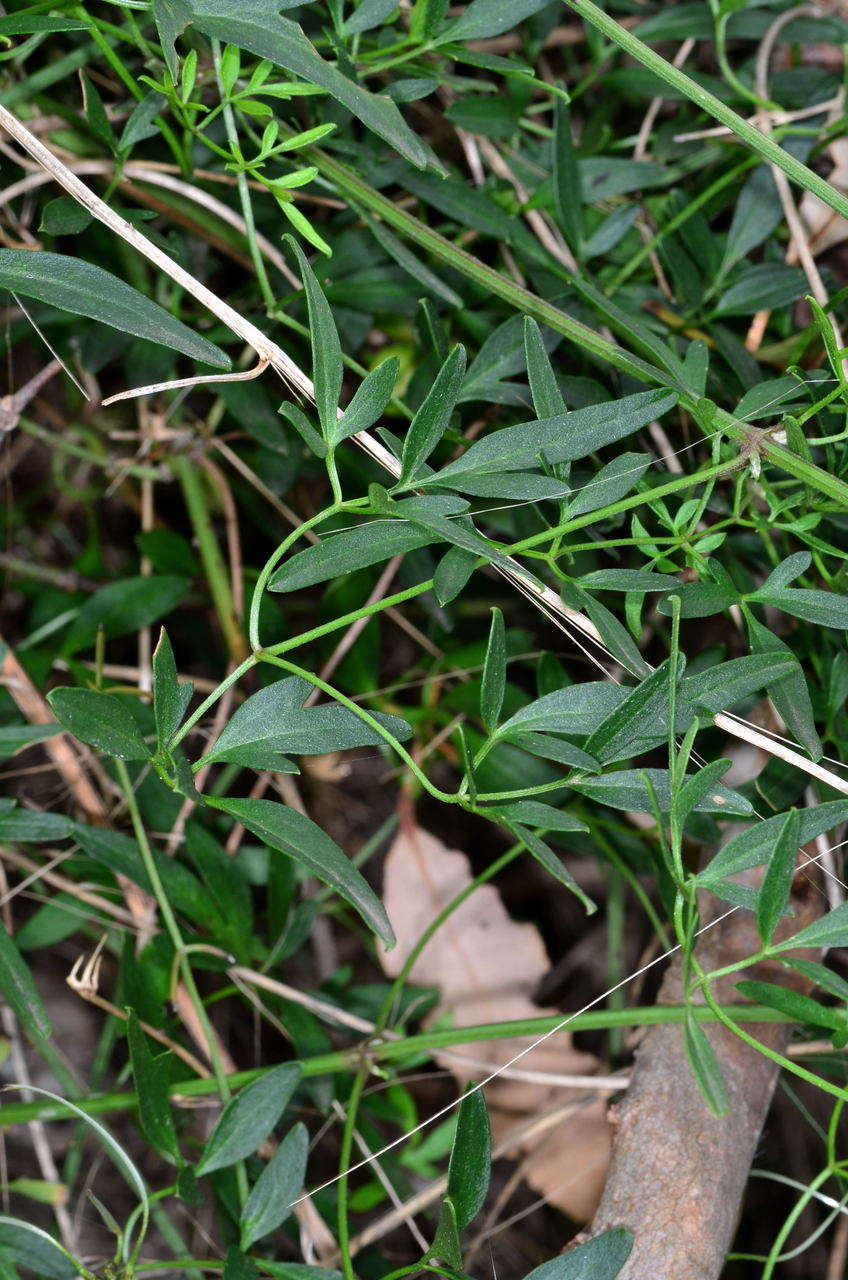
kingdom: Plantae
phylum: Tracheophyta
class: Magnoliopsida
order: Ranunculales
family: Ranunculaceae
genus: Clematis
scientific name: Clematis decipiens
